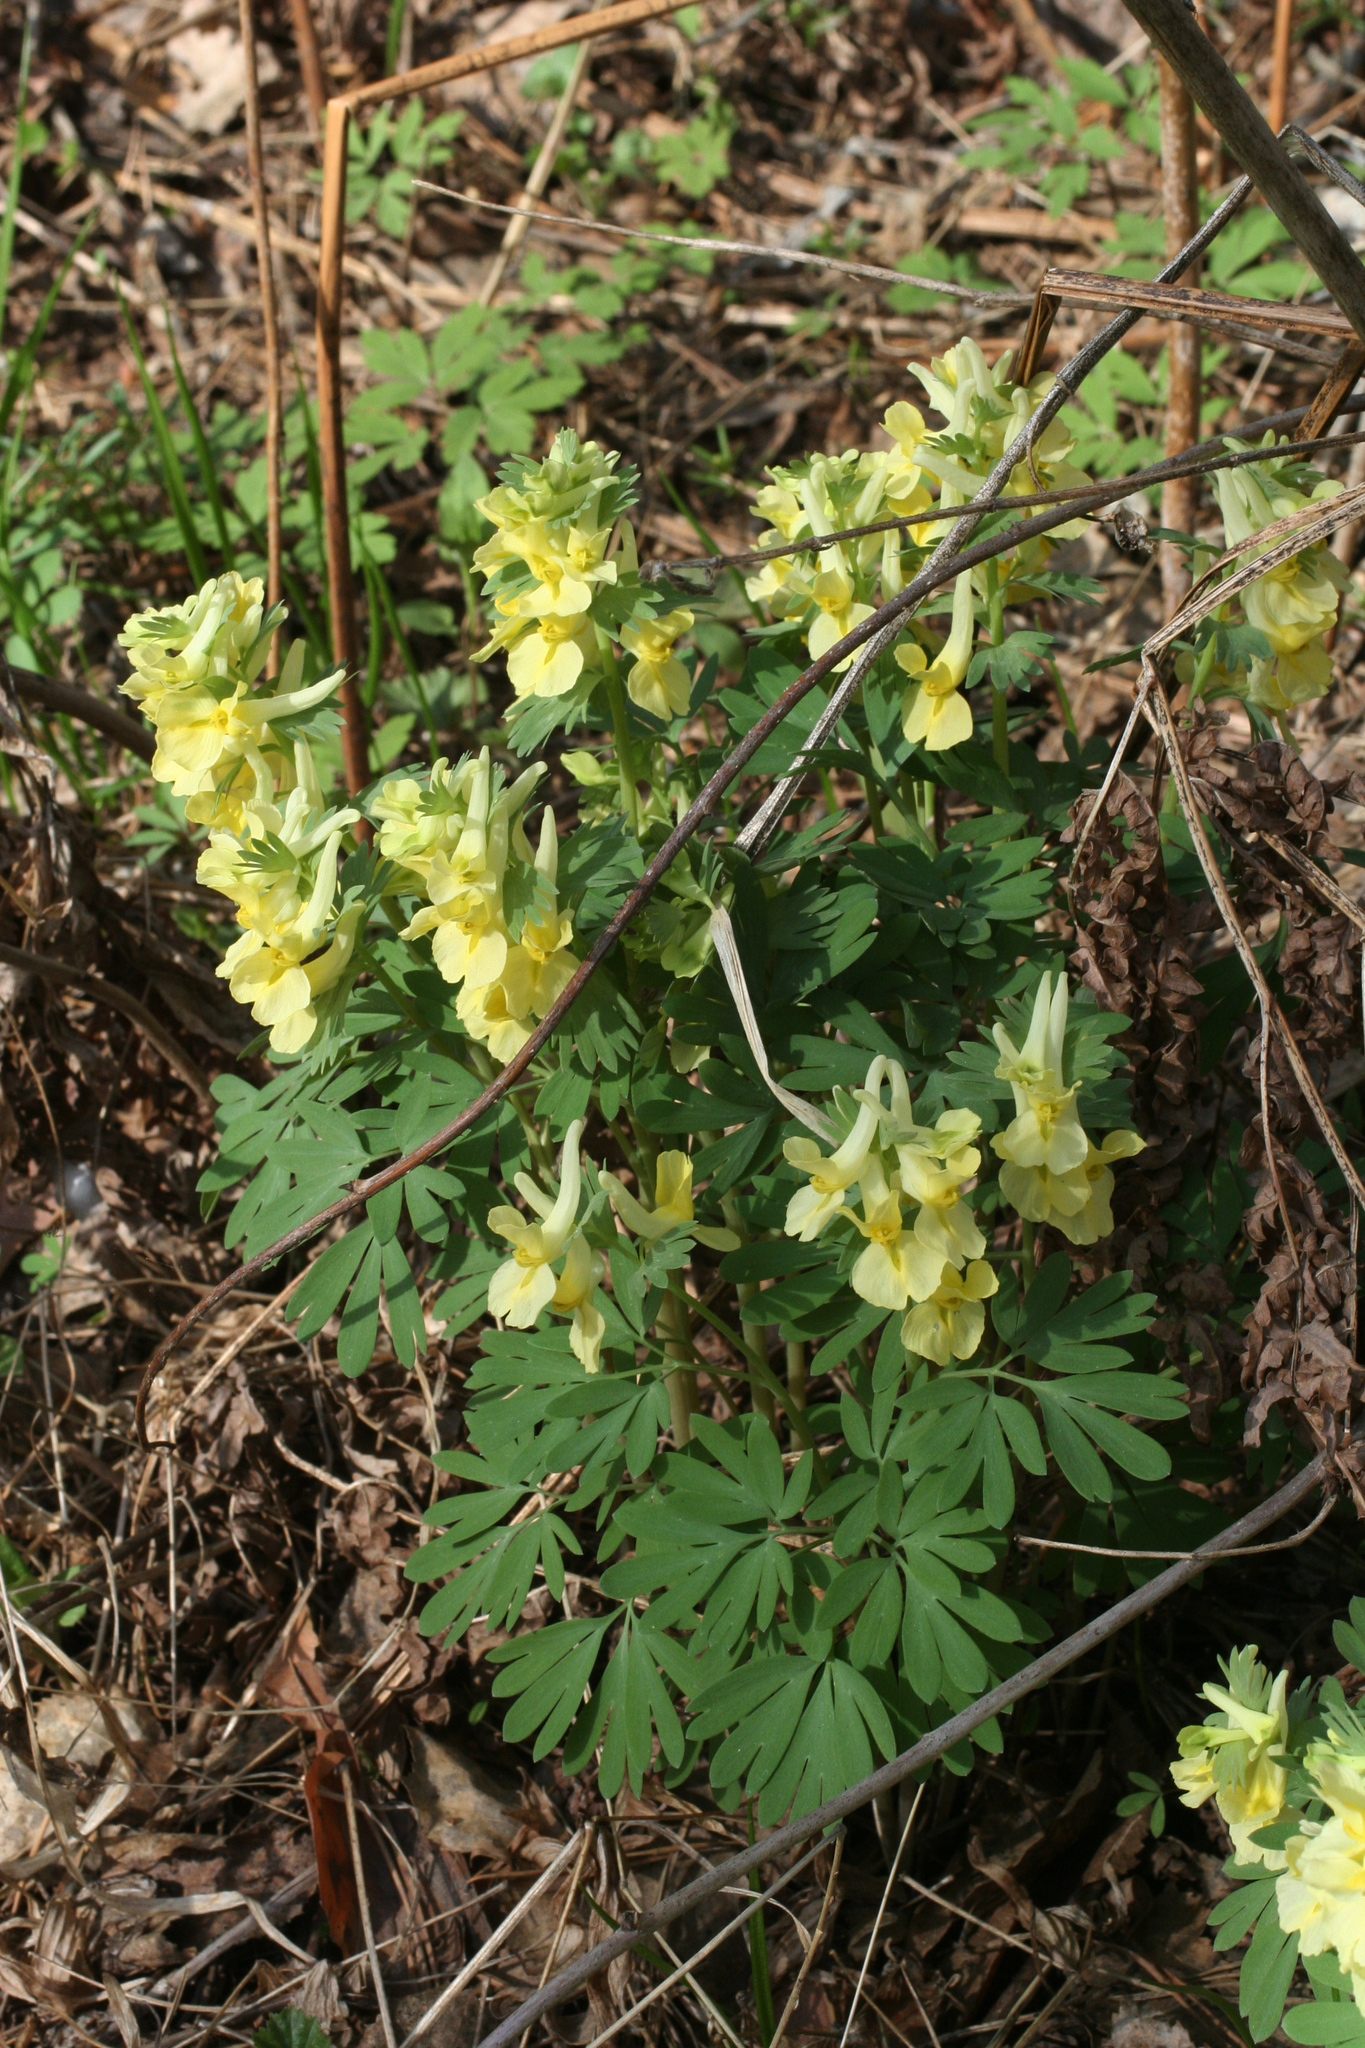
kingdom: Plantae
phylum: Tracheophyta
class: Magnoliopsida
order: Ranunculales
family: Papaveraceae
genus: Corydalis
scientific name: Corydalis bracteata
